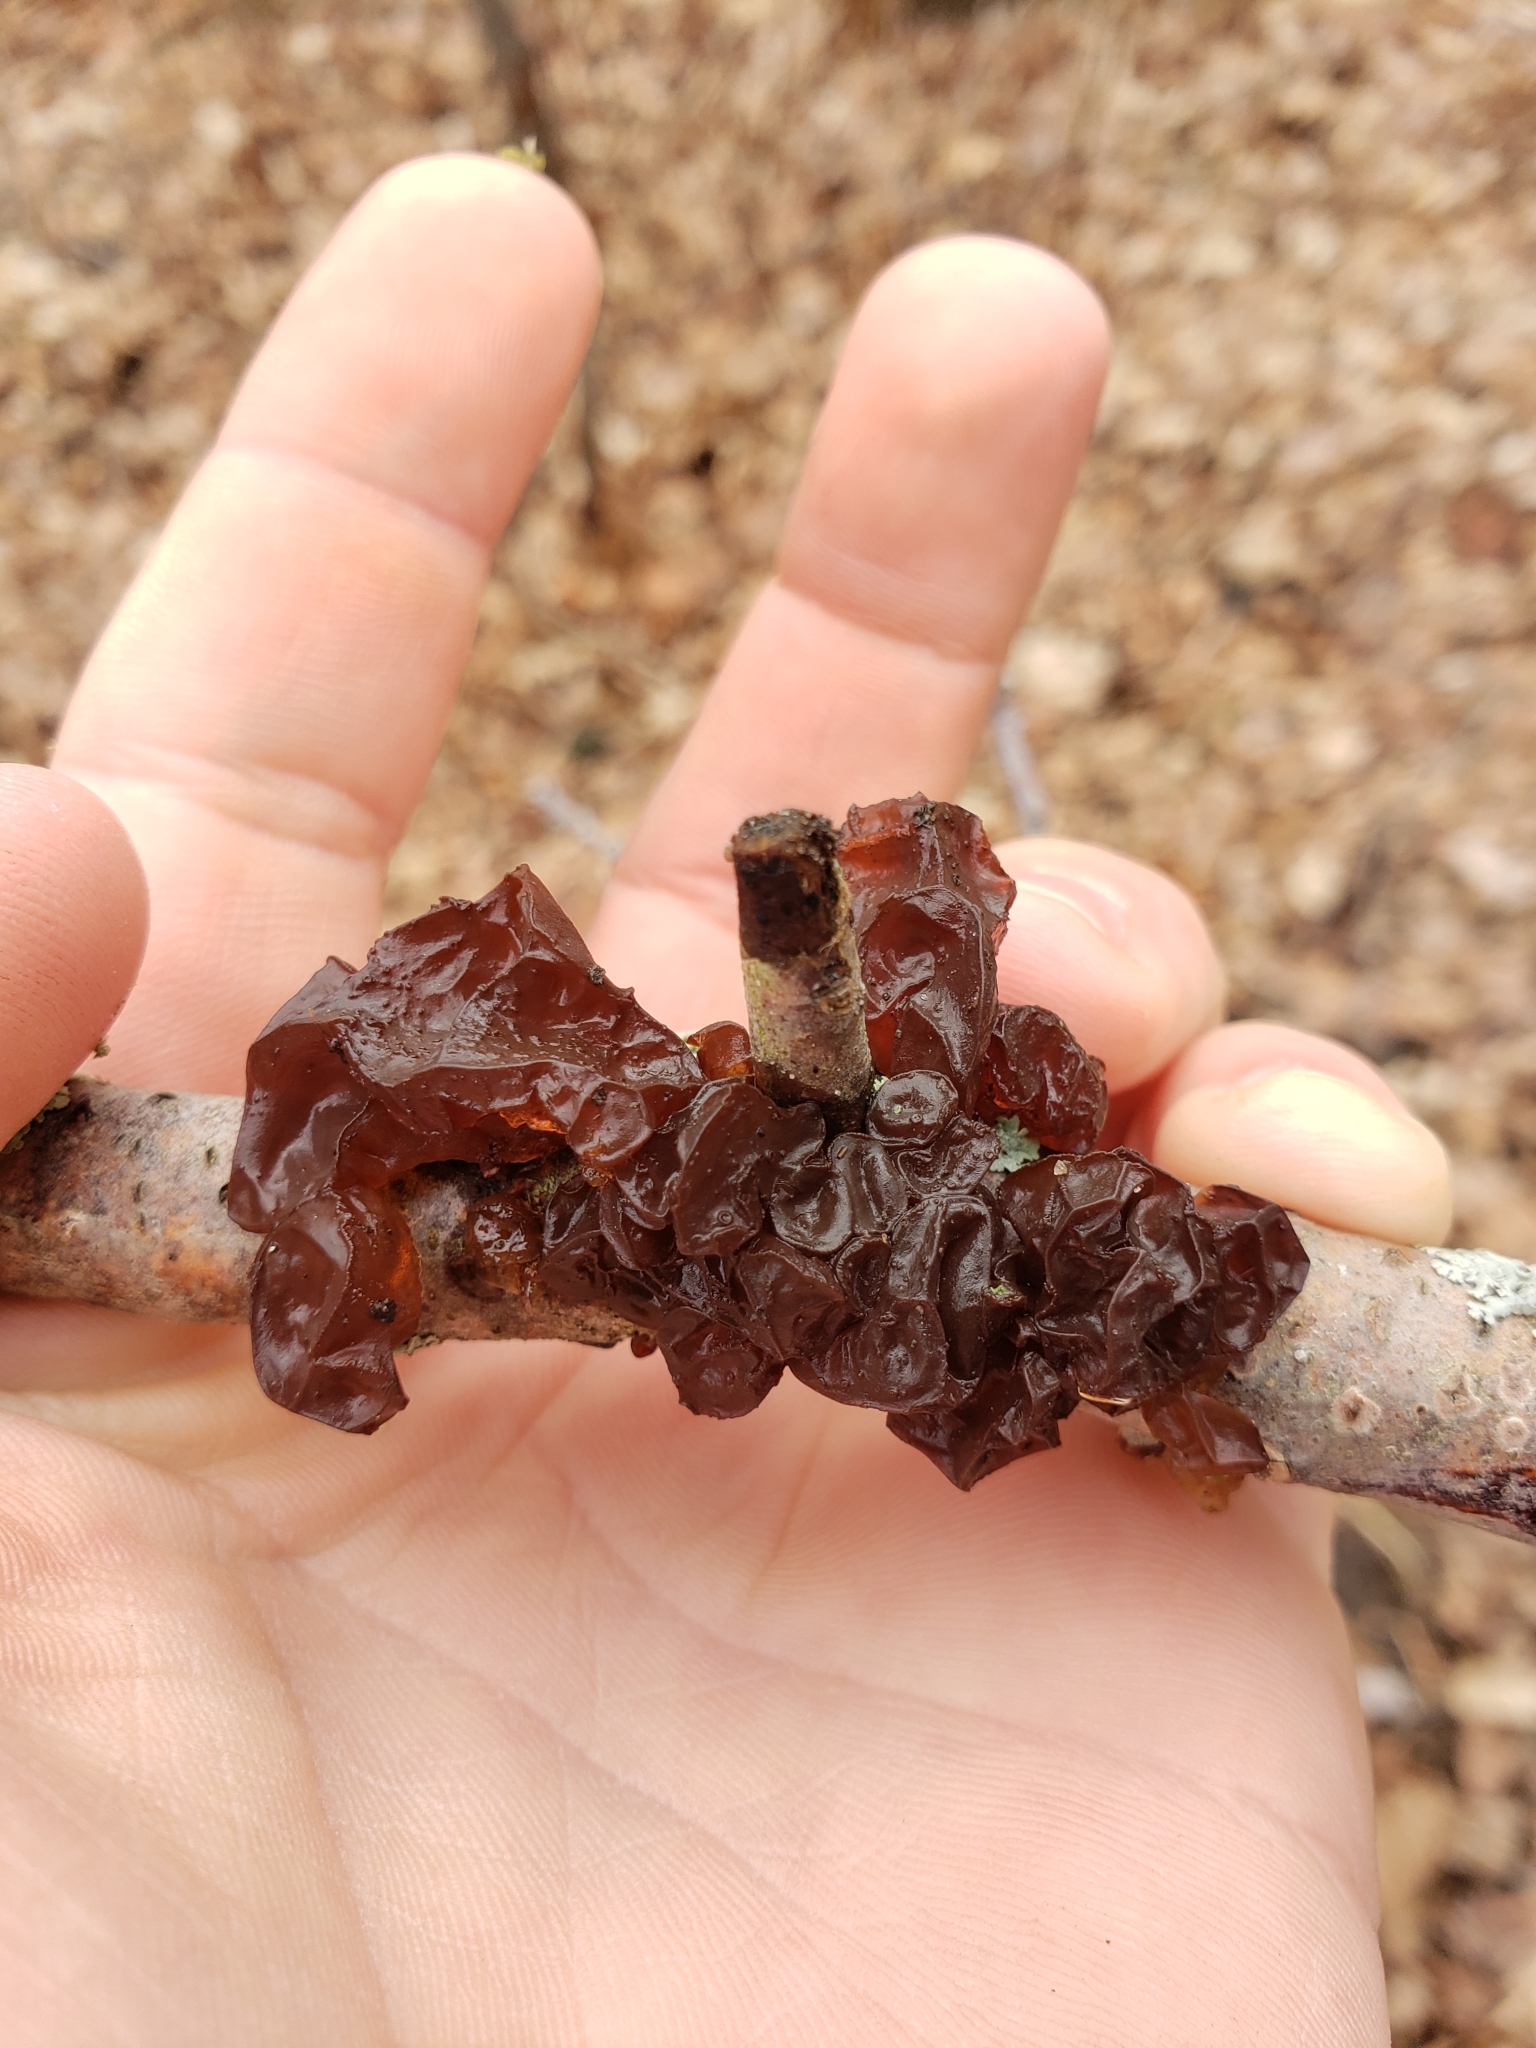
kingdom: Fungi
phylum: Basidiomycota
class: Agaricomycetes
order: Auriculariales
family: Auriculariaceae
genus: Exidia
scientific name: Exidia
